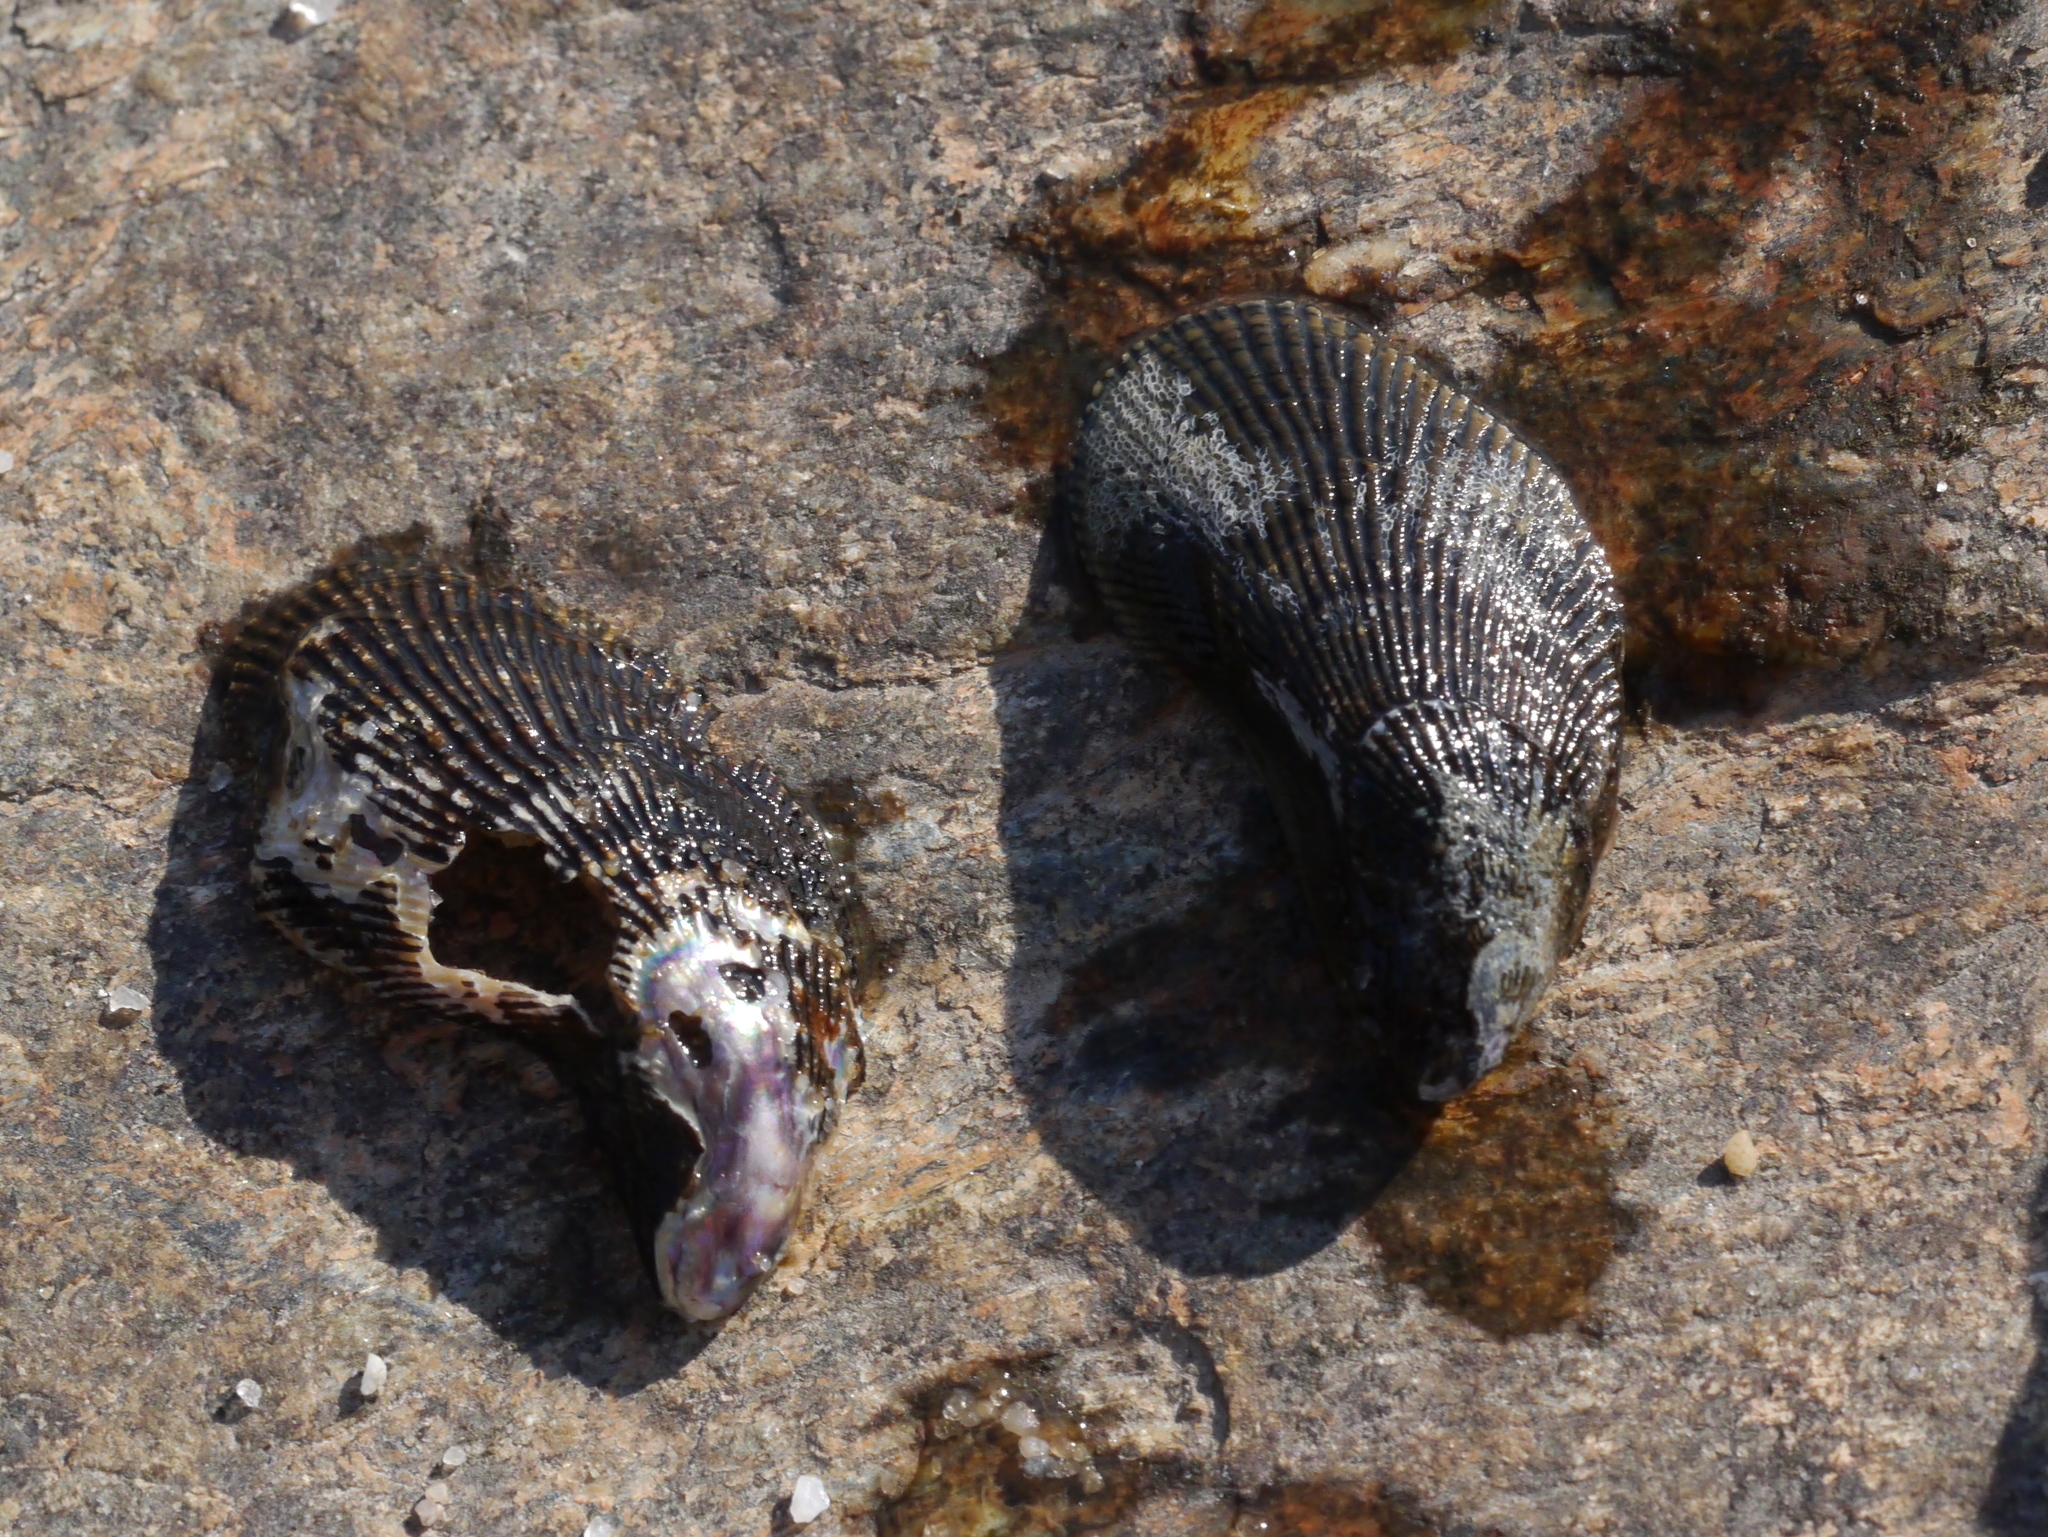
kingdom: Animalia
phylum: Mollusca
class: Bivalvia
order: Mytilida
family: Mytilidae
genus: Ischadium
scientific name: Ischadium recurvum
